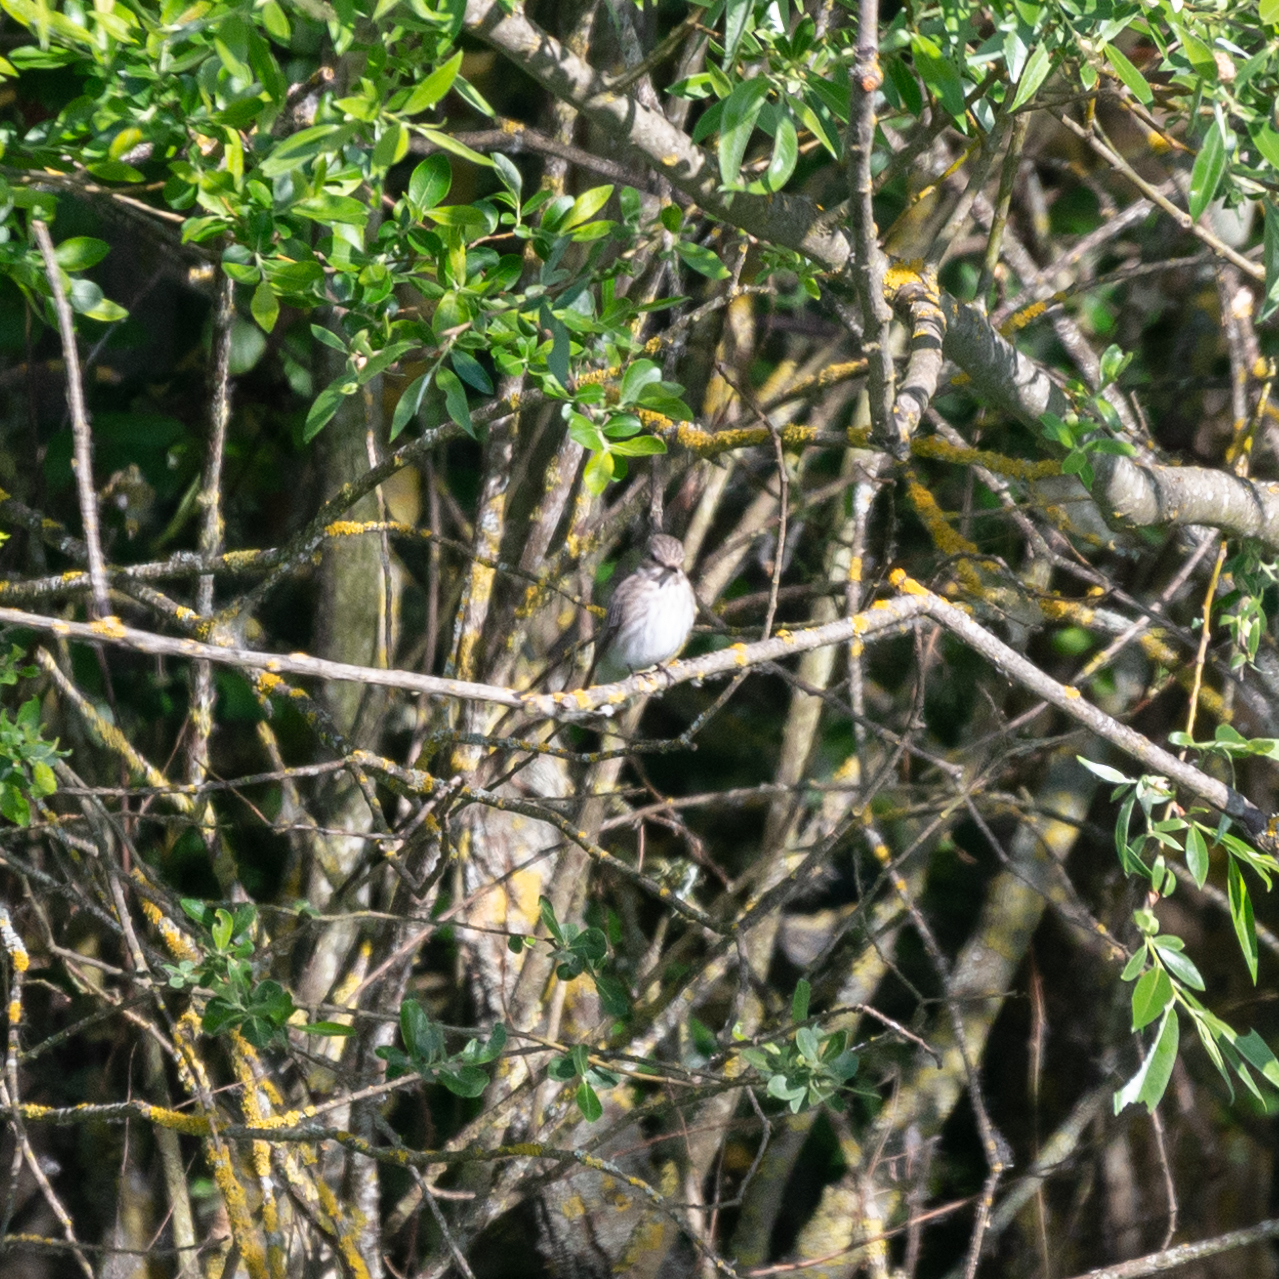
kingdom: Animalia
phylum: Chordata
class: Aves
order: Passeriformes
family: Muscicapidae
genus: Muscicapa
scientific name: Muscicapa striata
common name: Spotted flycatcher
